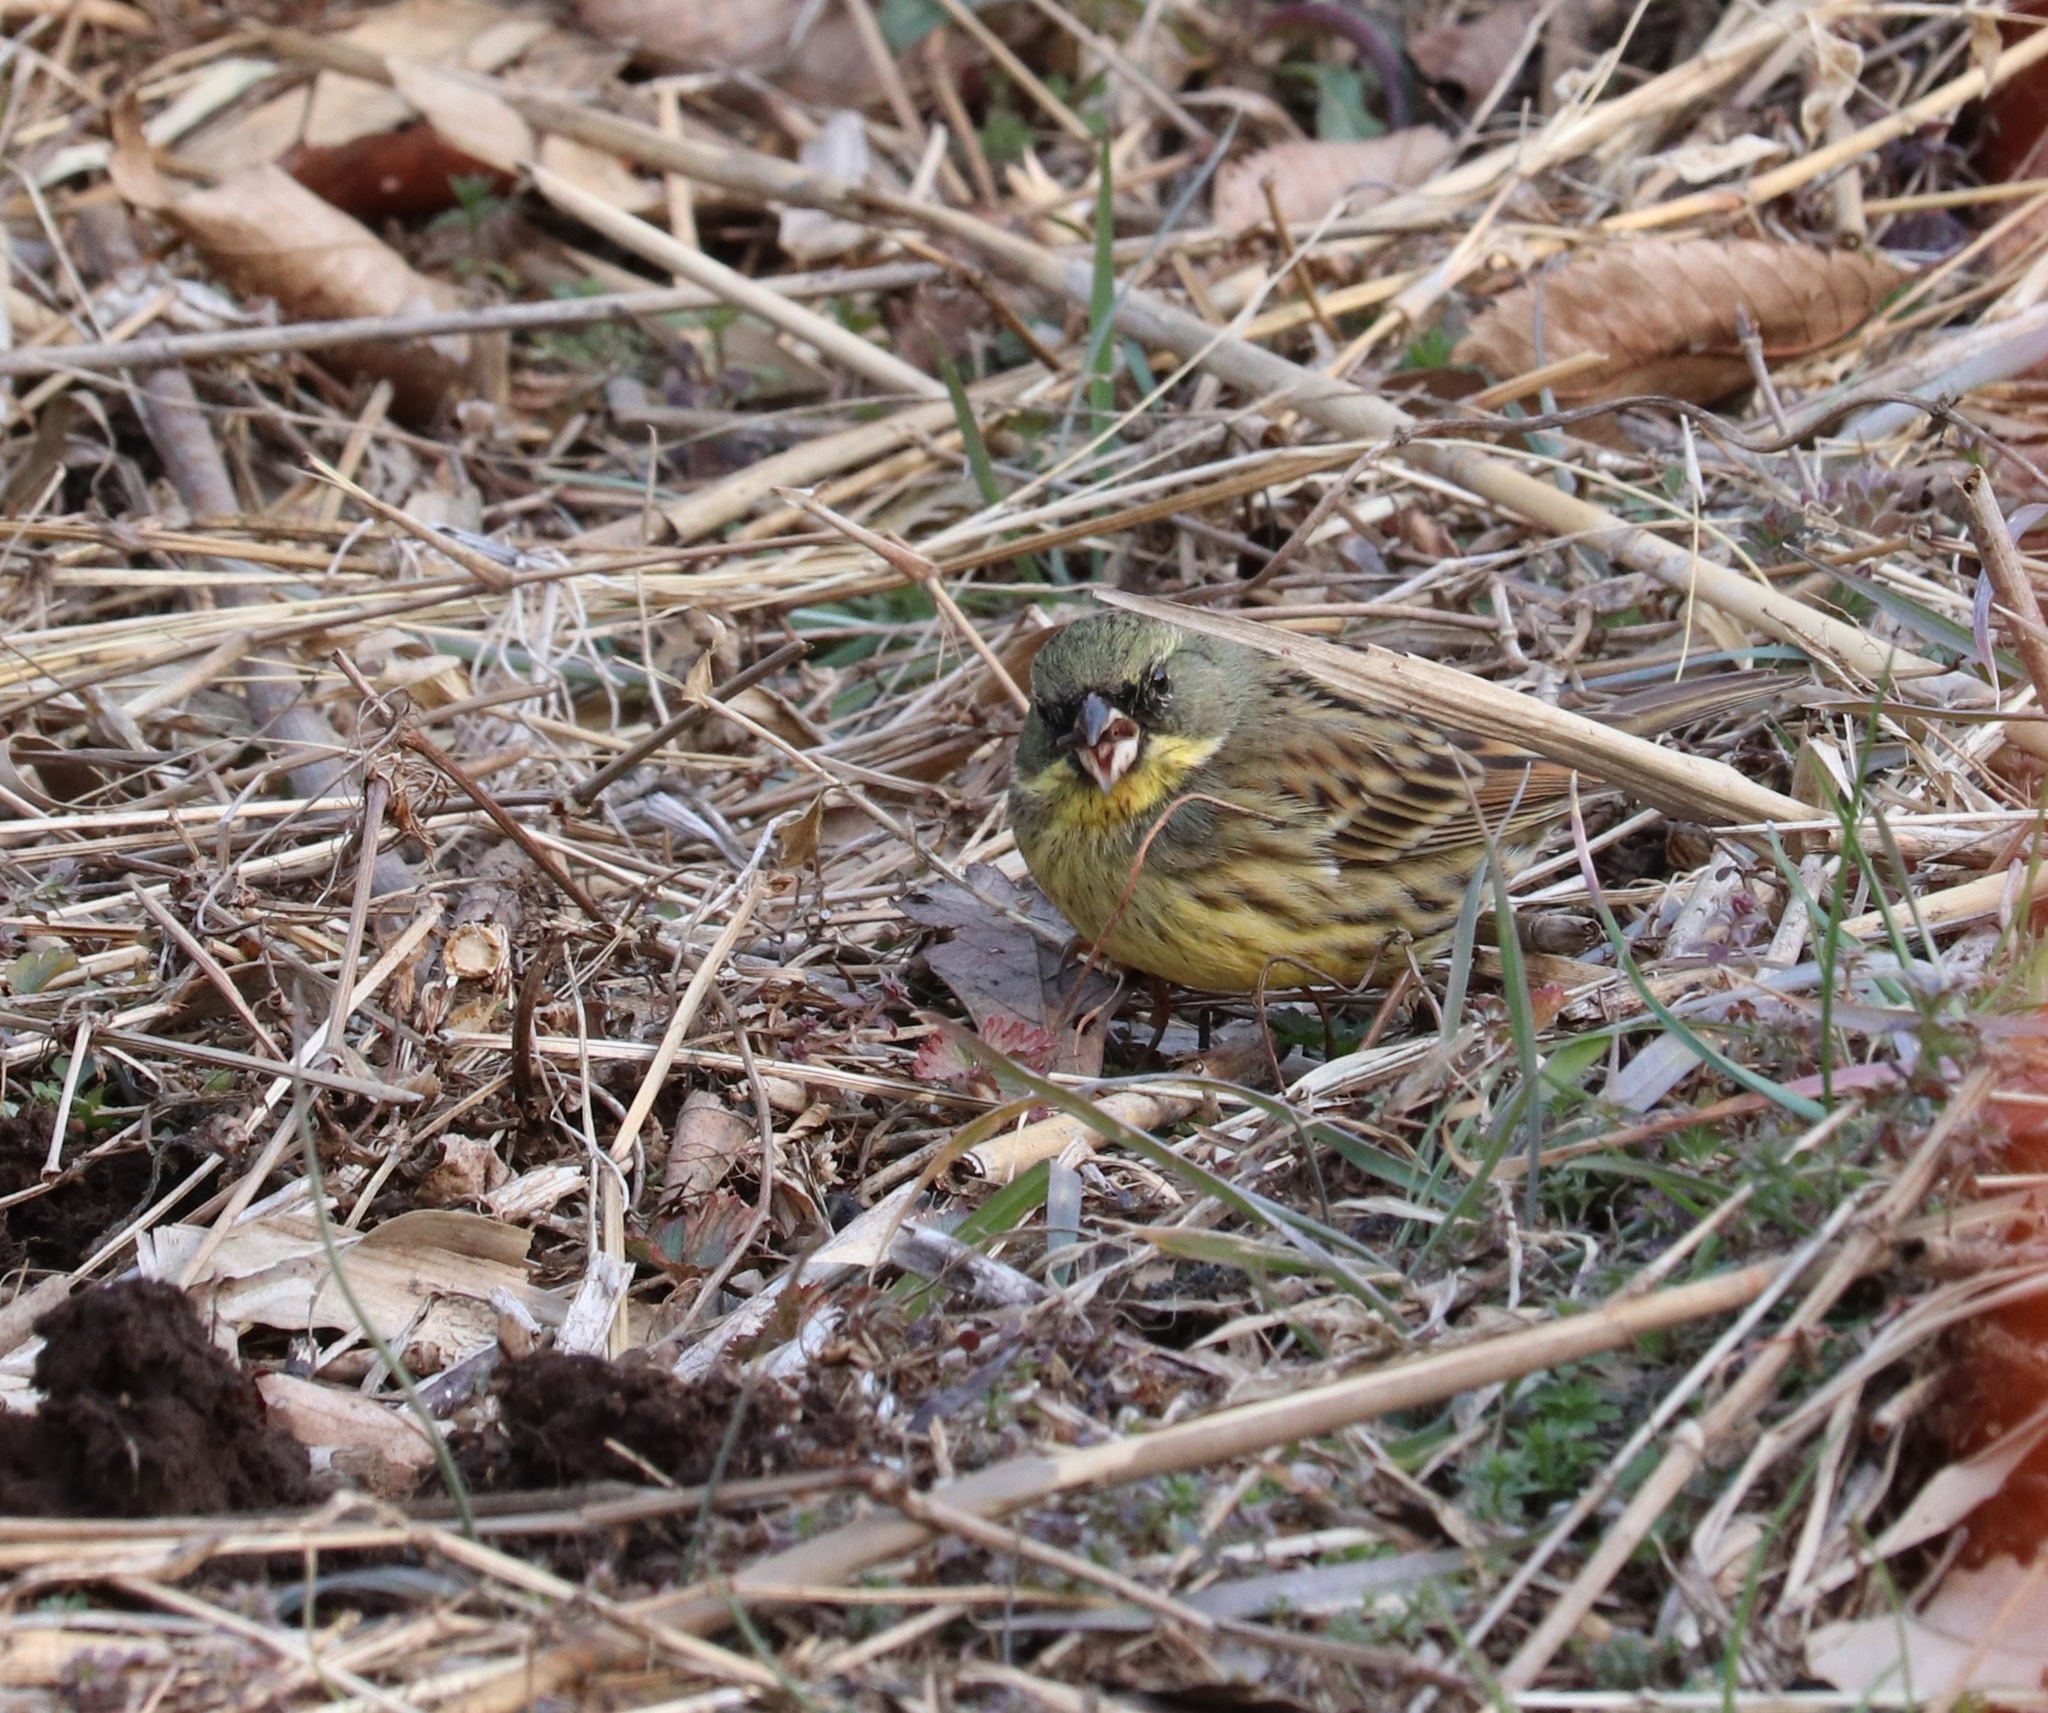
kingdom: Animalia
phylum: Chordata
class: Aves
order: Passeriformes
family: Emberizidae
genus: Emberiza
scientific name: Emberiza personata
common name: Masked bunting
